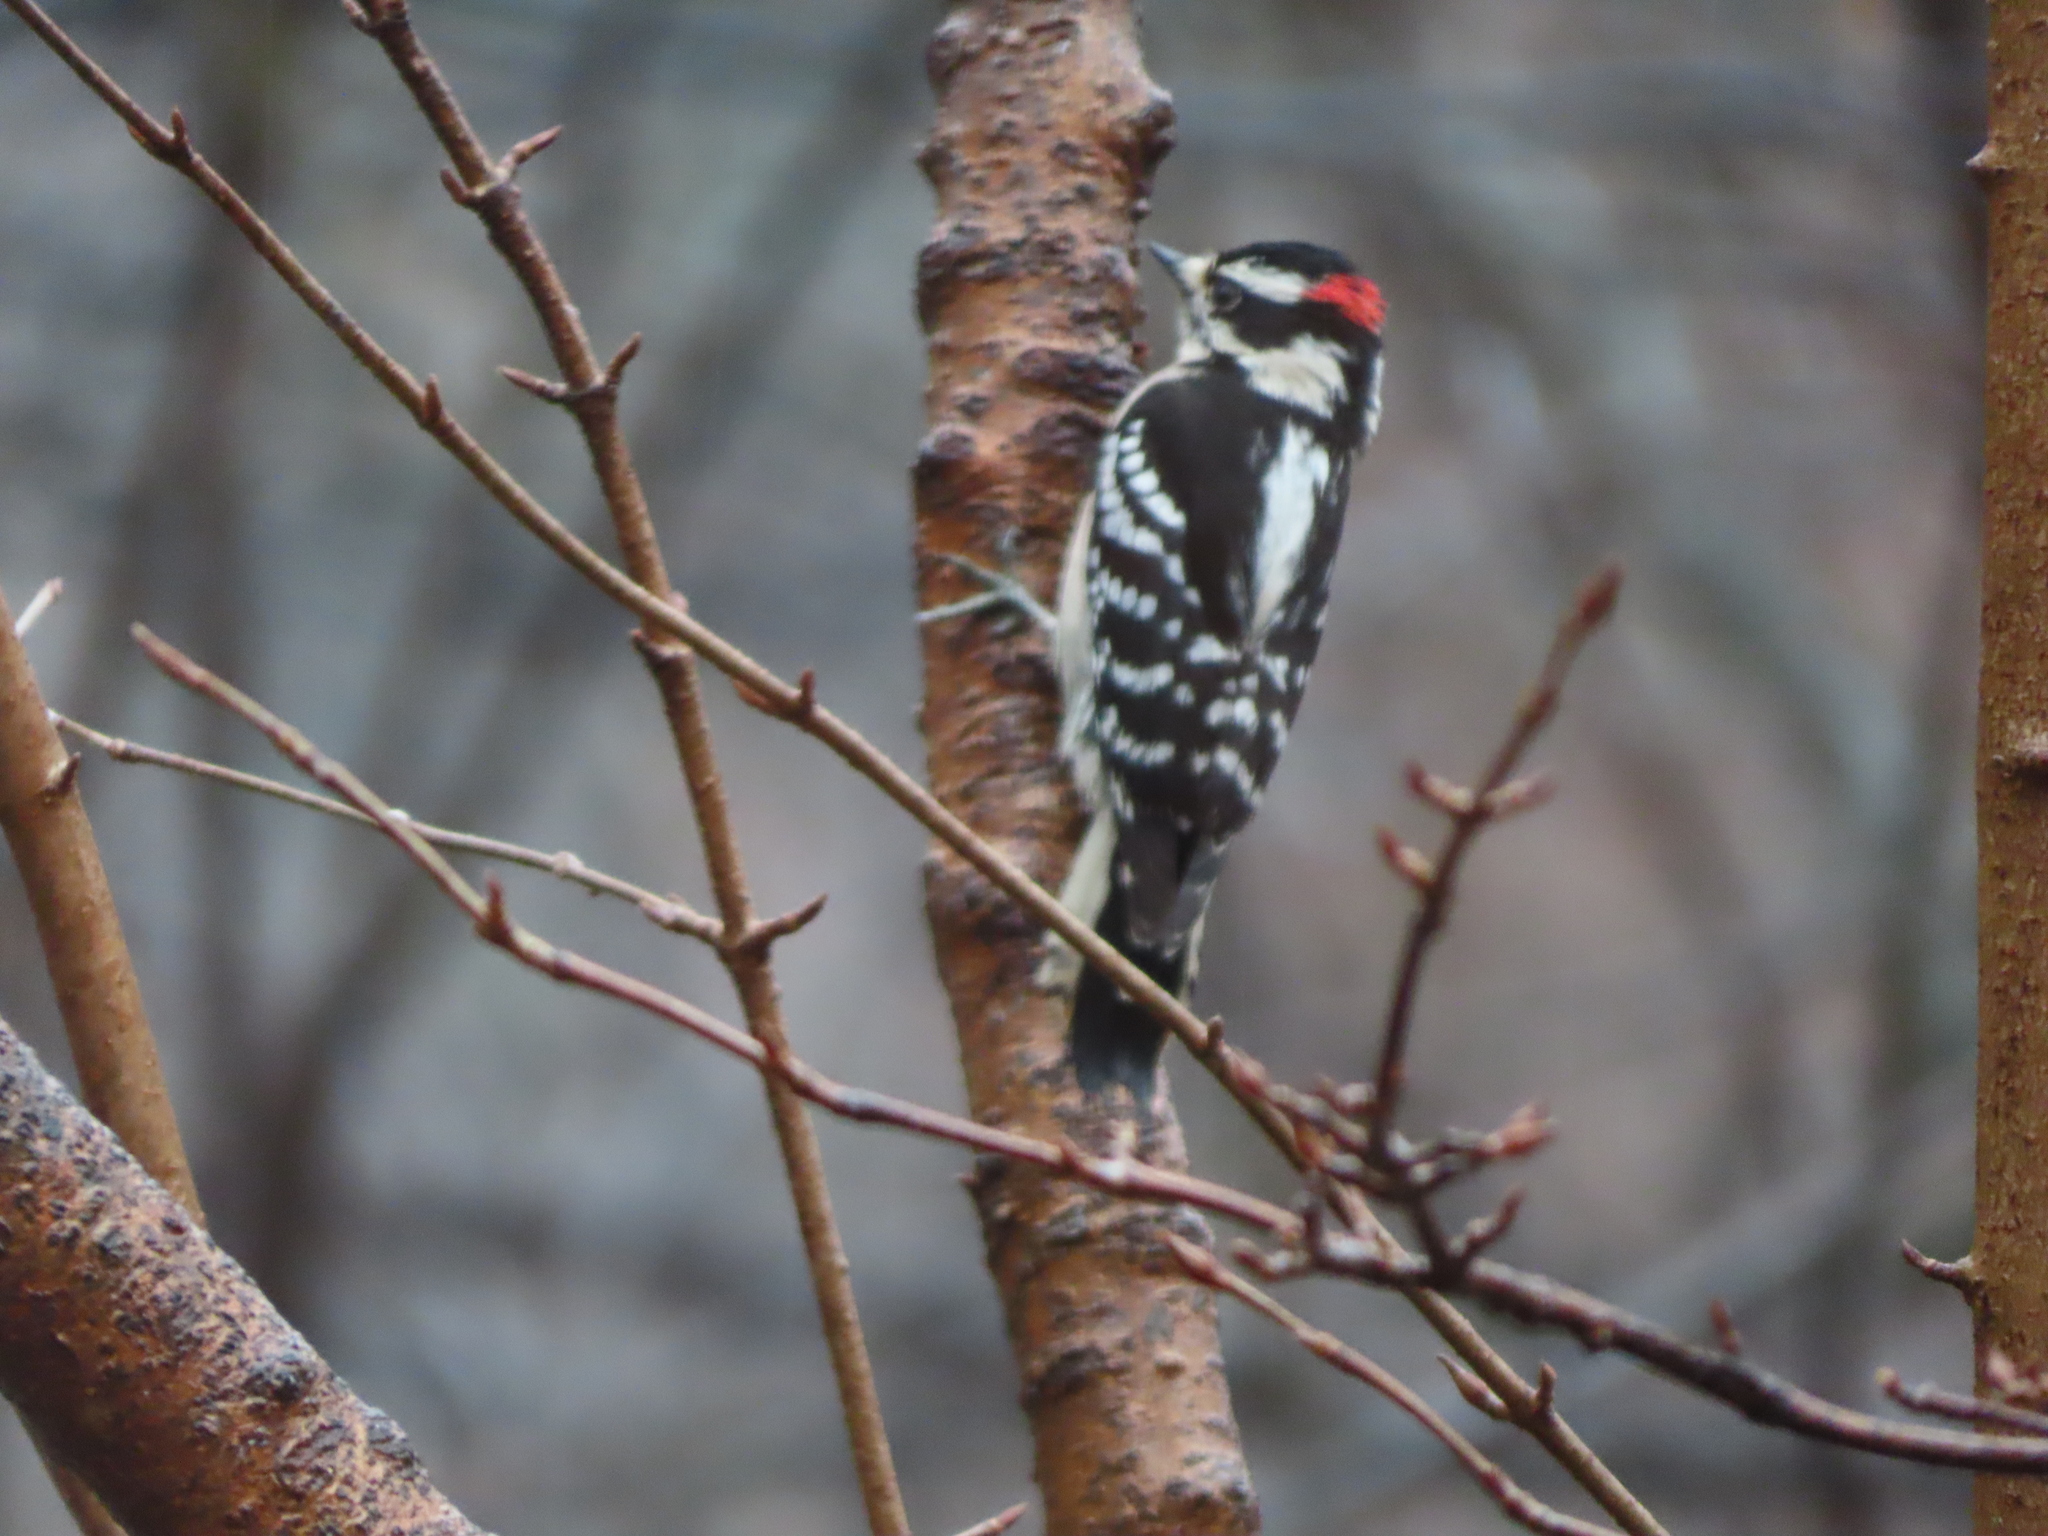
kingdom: Animalia
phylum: Chordata
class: Aves
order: Piciformes
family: Picidae
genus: Dryobates
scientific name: Dryobates pubescens
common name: Downy woodpecker
